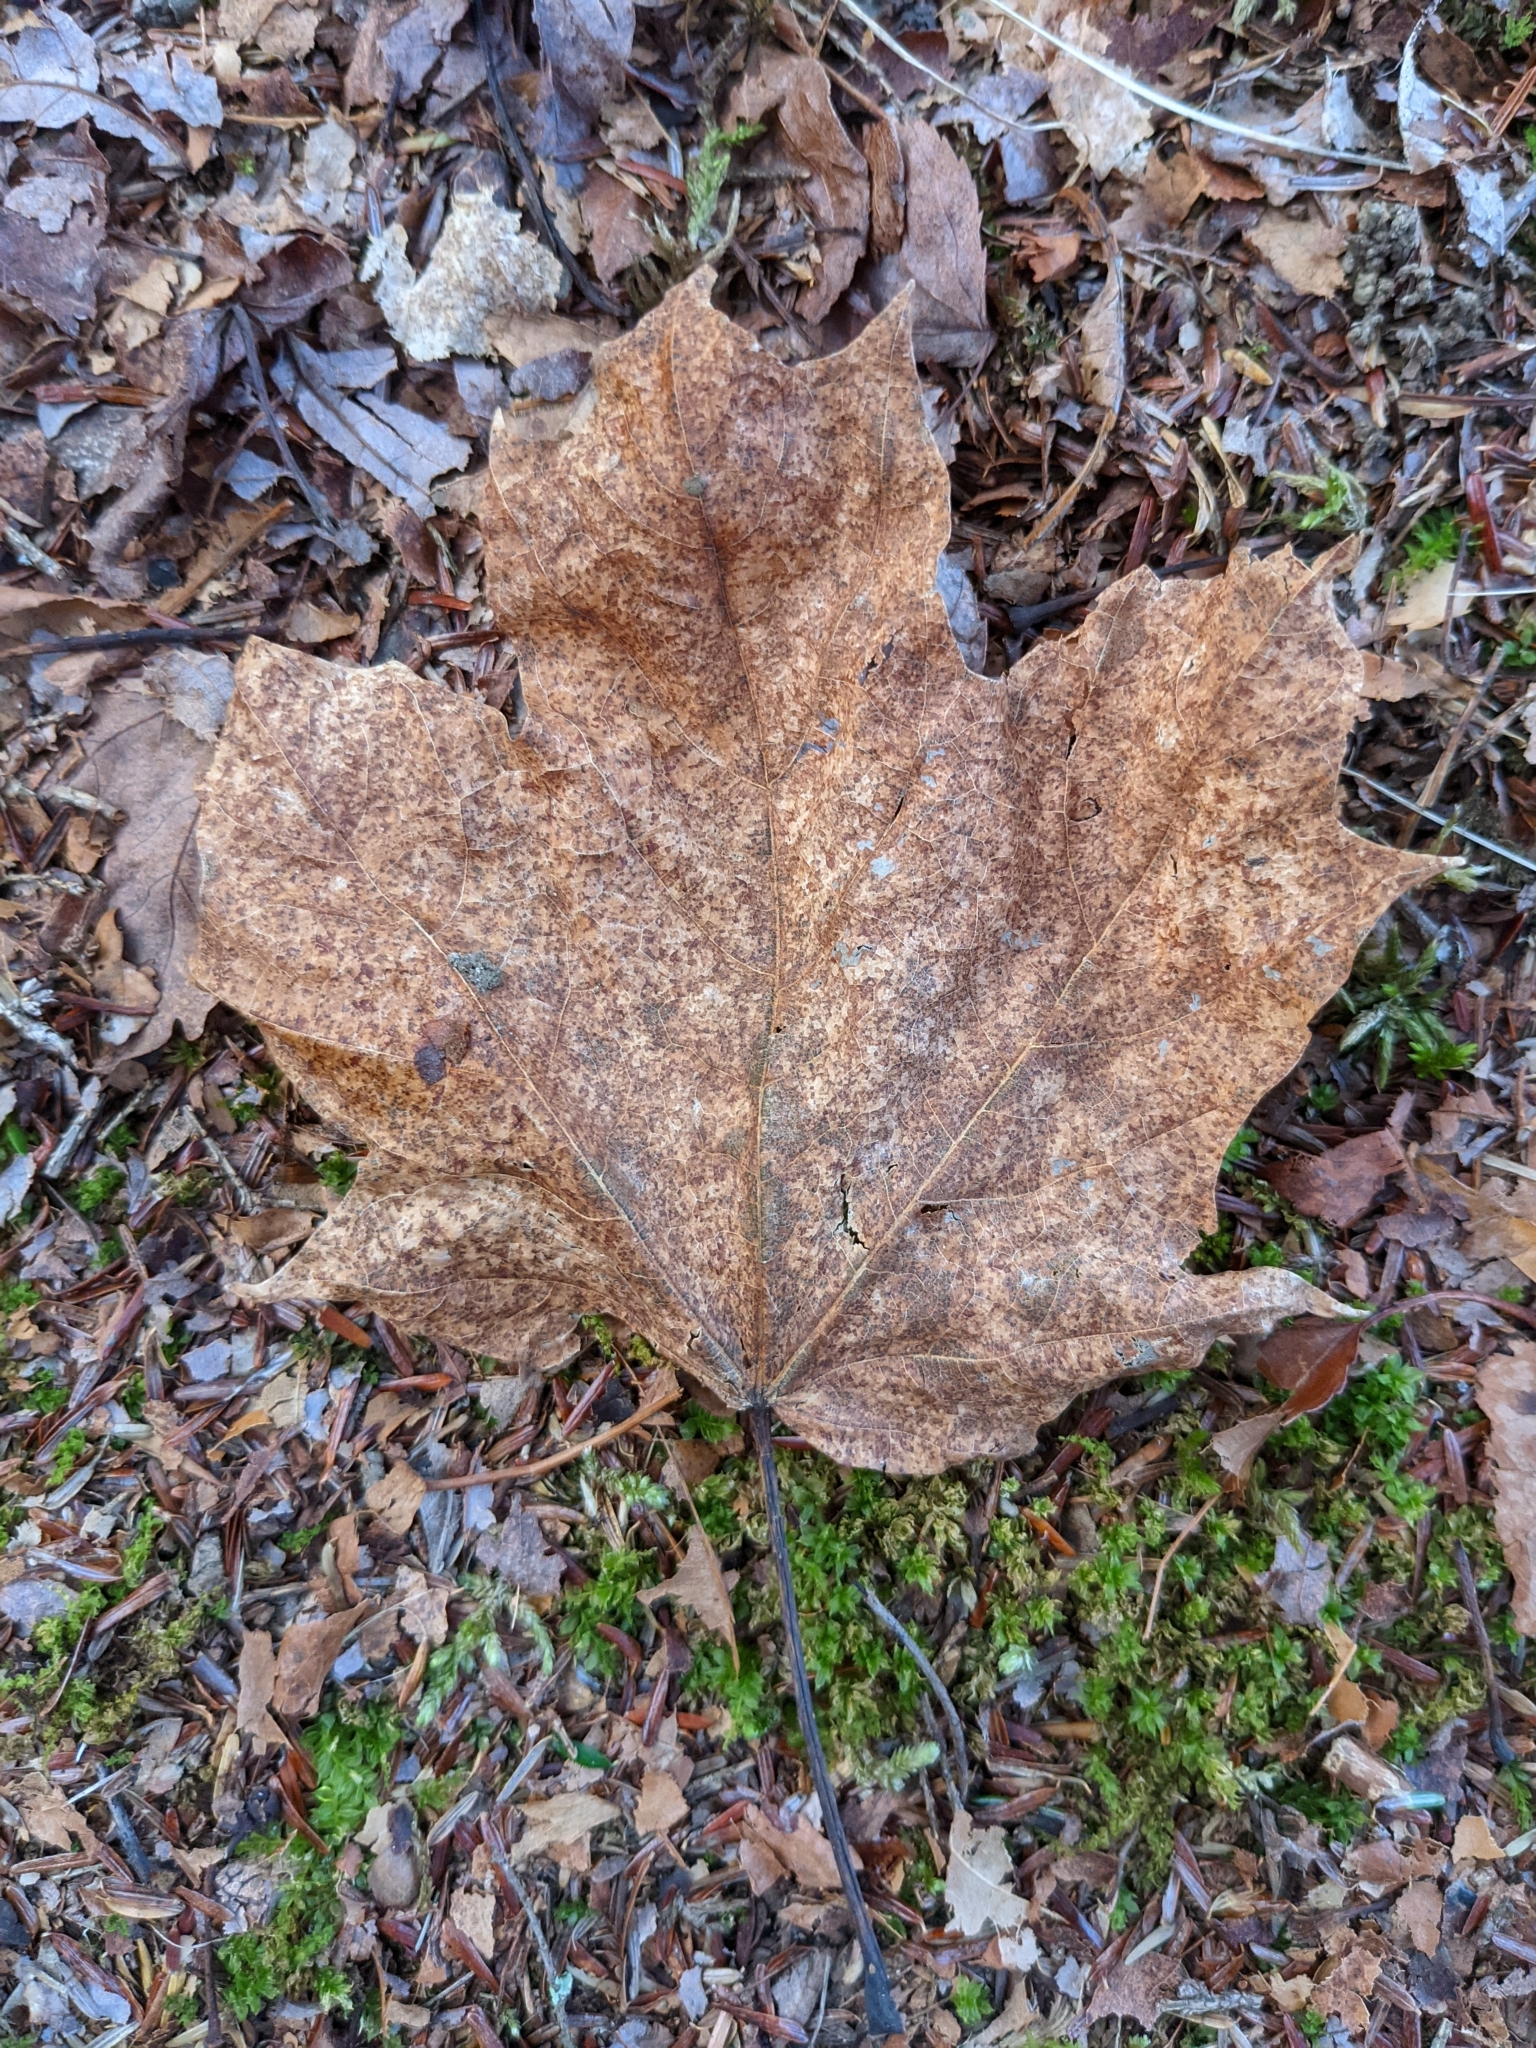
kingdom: Plantae
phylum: Tracheophyta
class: Magnoliopsida
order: Sapindales
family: Sapindaceae
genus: Acer
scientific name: Acer saccharum
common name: Sugar maple
